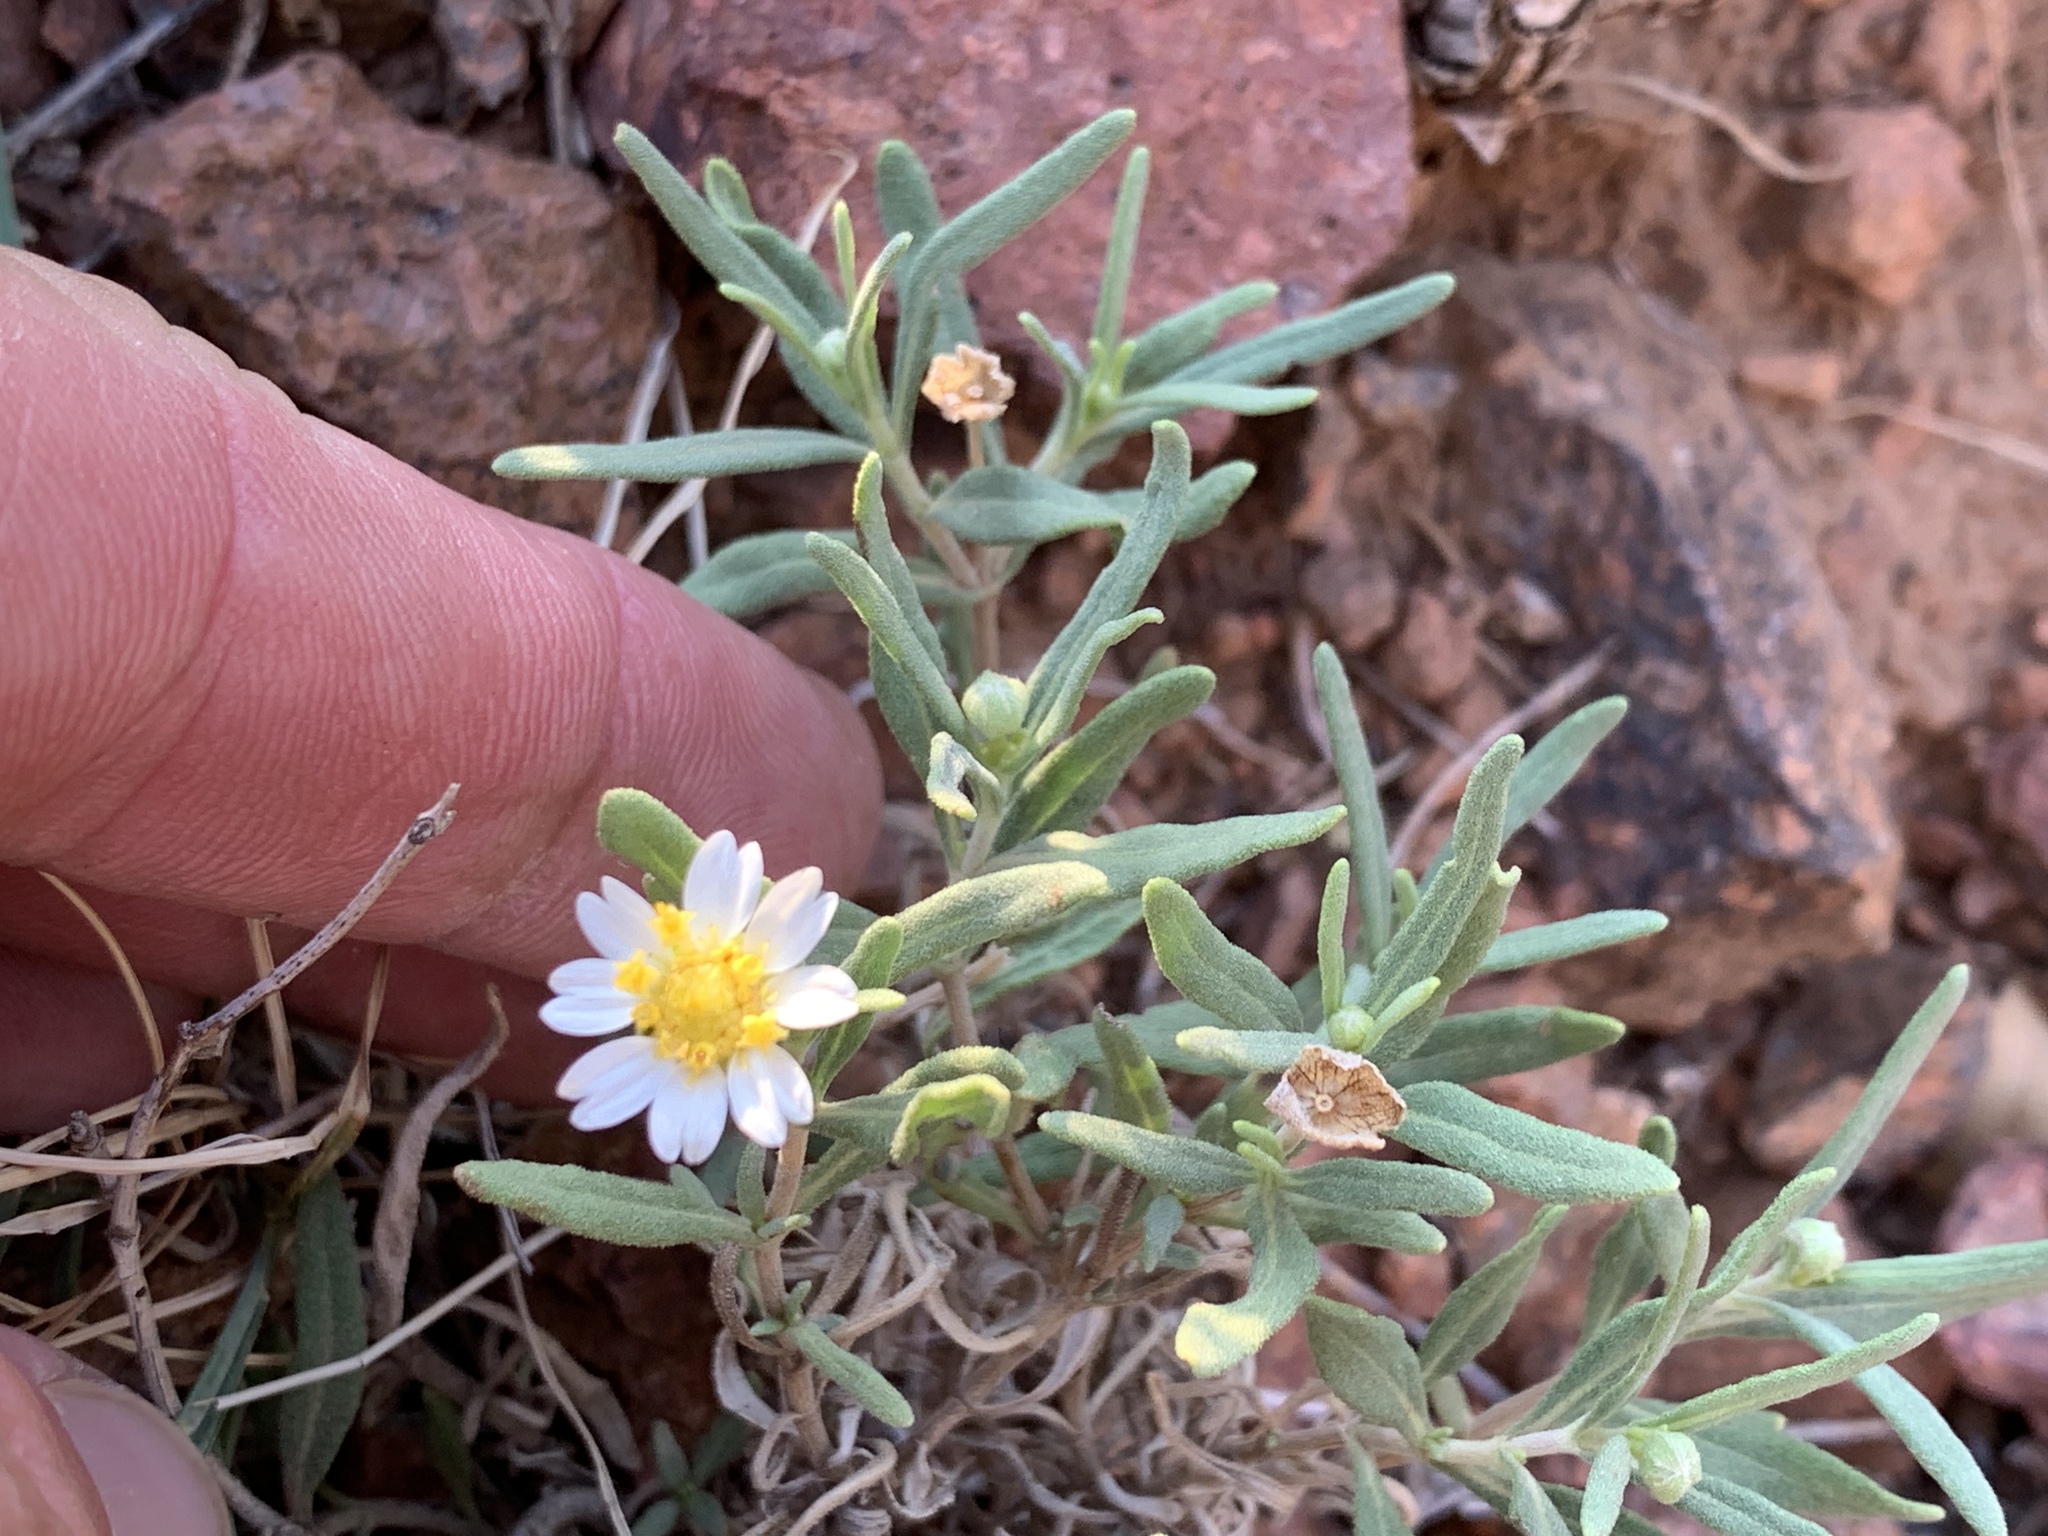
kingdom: Plantae
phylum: Tracheophyta
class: Magnoliopsida
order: Asterales
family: Asteraceae
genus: Melampodium
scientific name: Melampodium leucanthum
